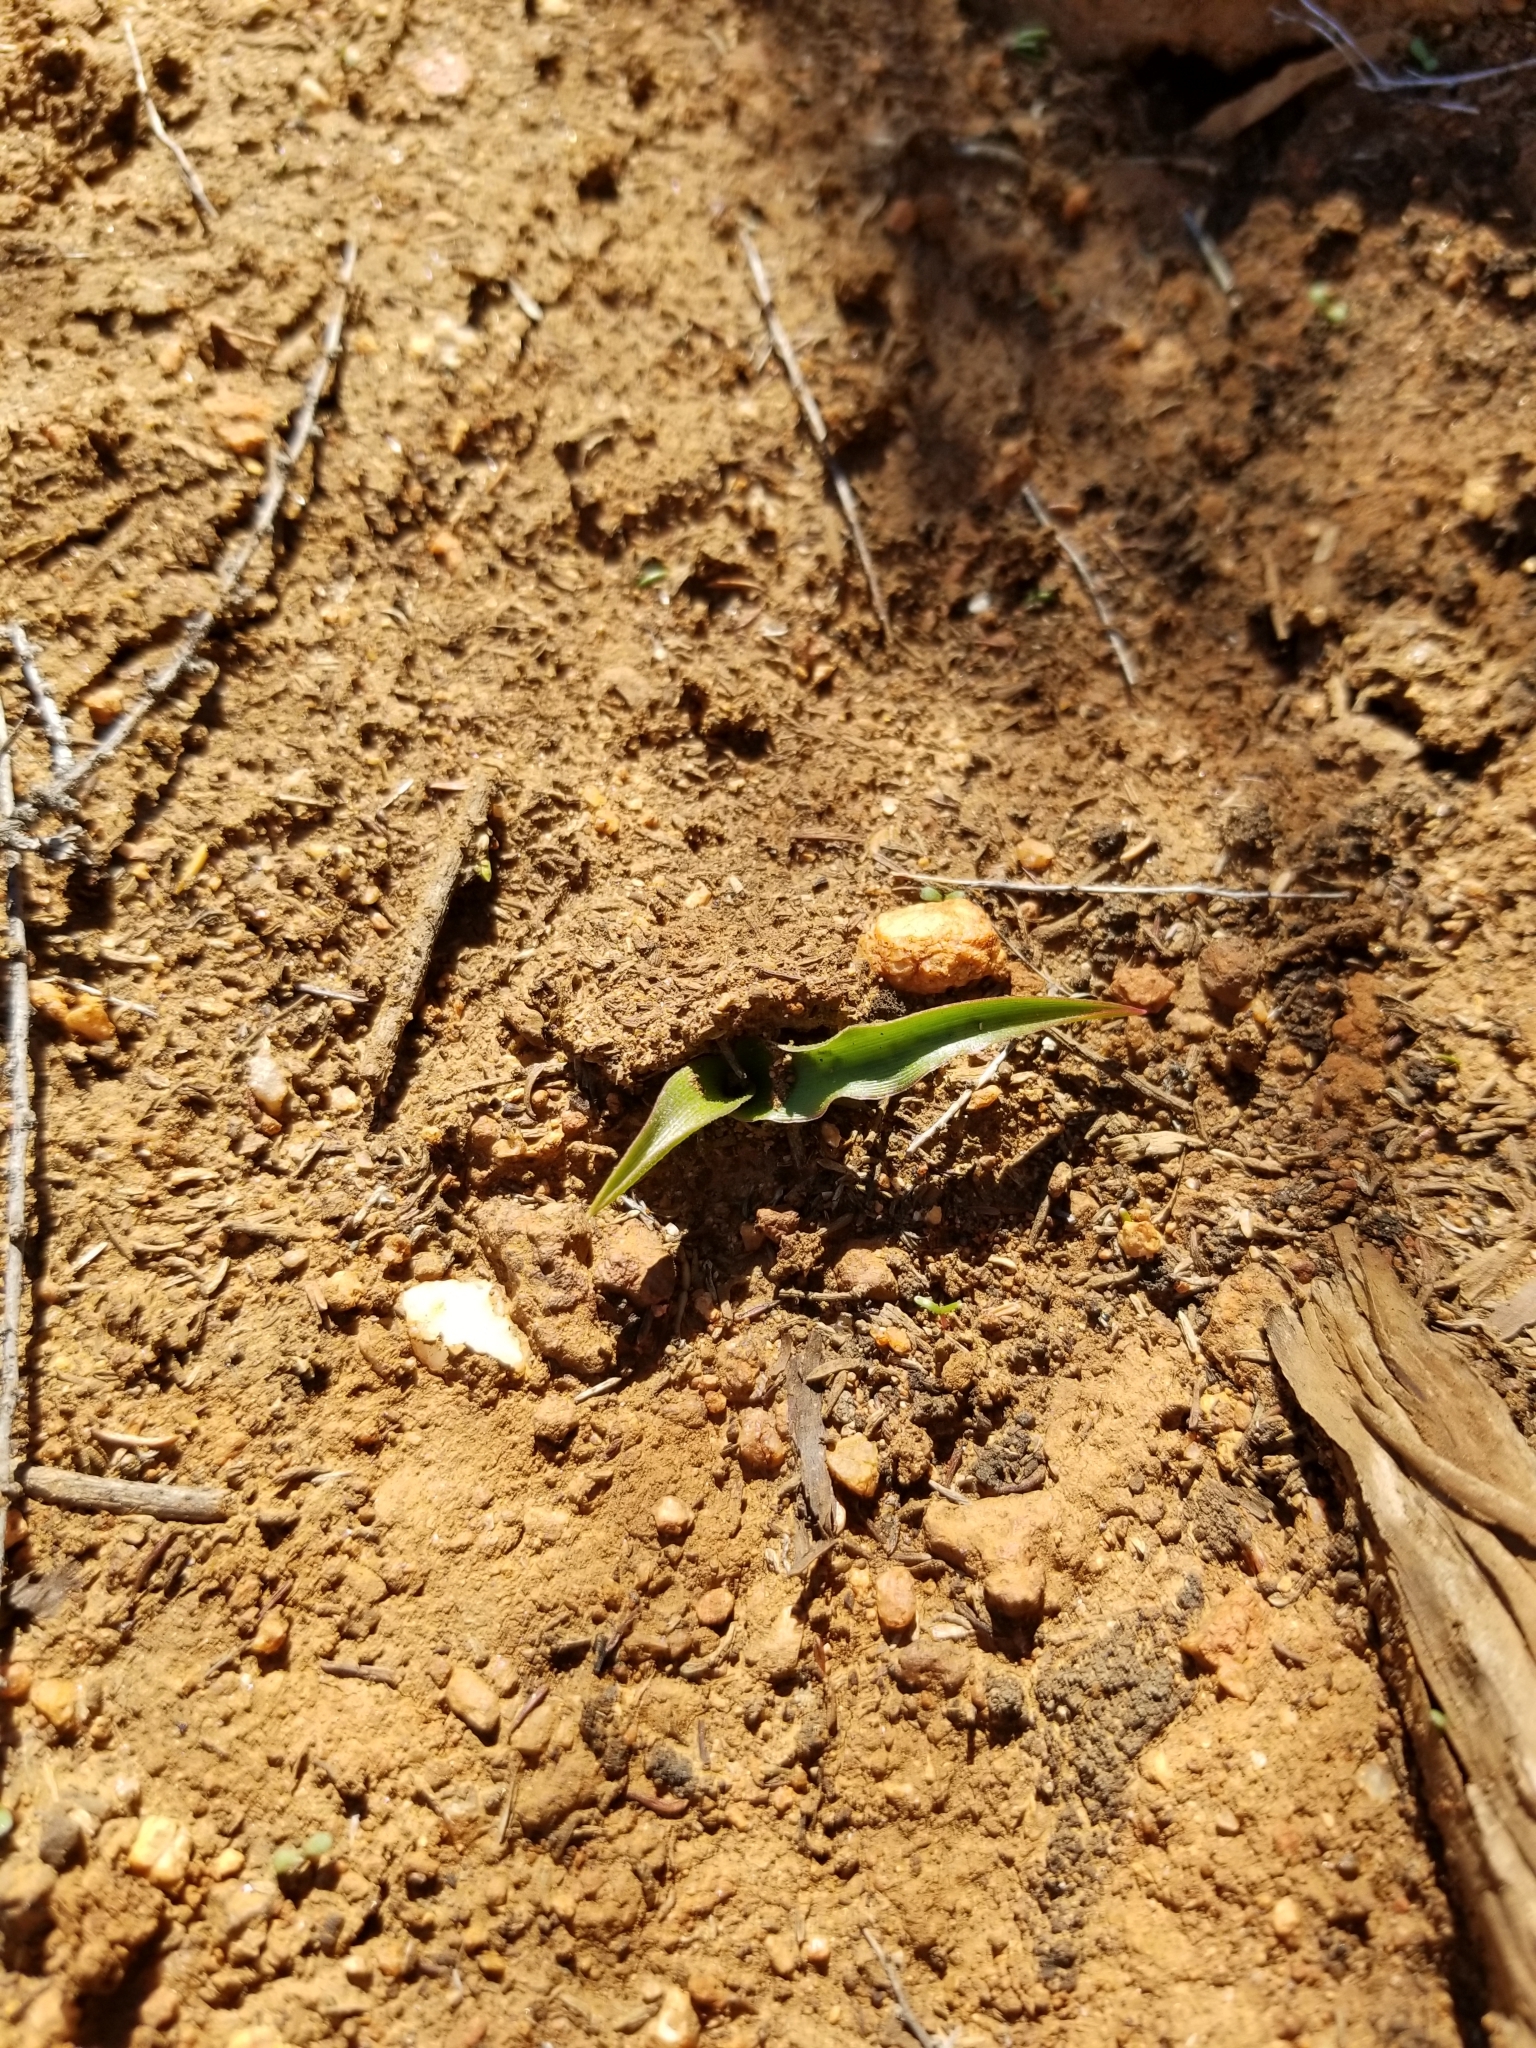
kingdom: Plantae
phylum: Tracheophyta
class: Liliopsida
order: Asparagales
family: Asparagaceae
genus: Hooveria
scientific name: Hooveria parviflora
